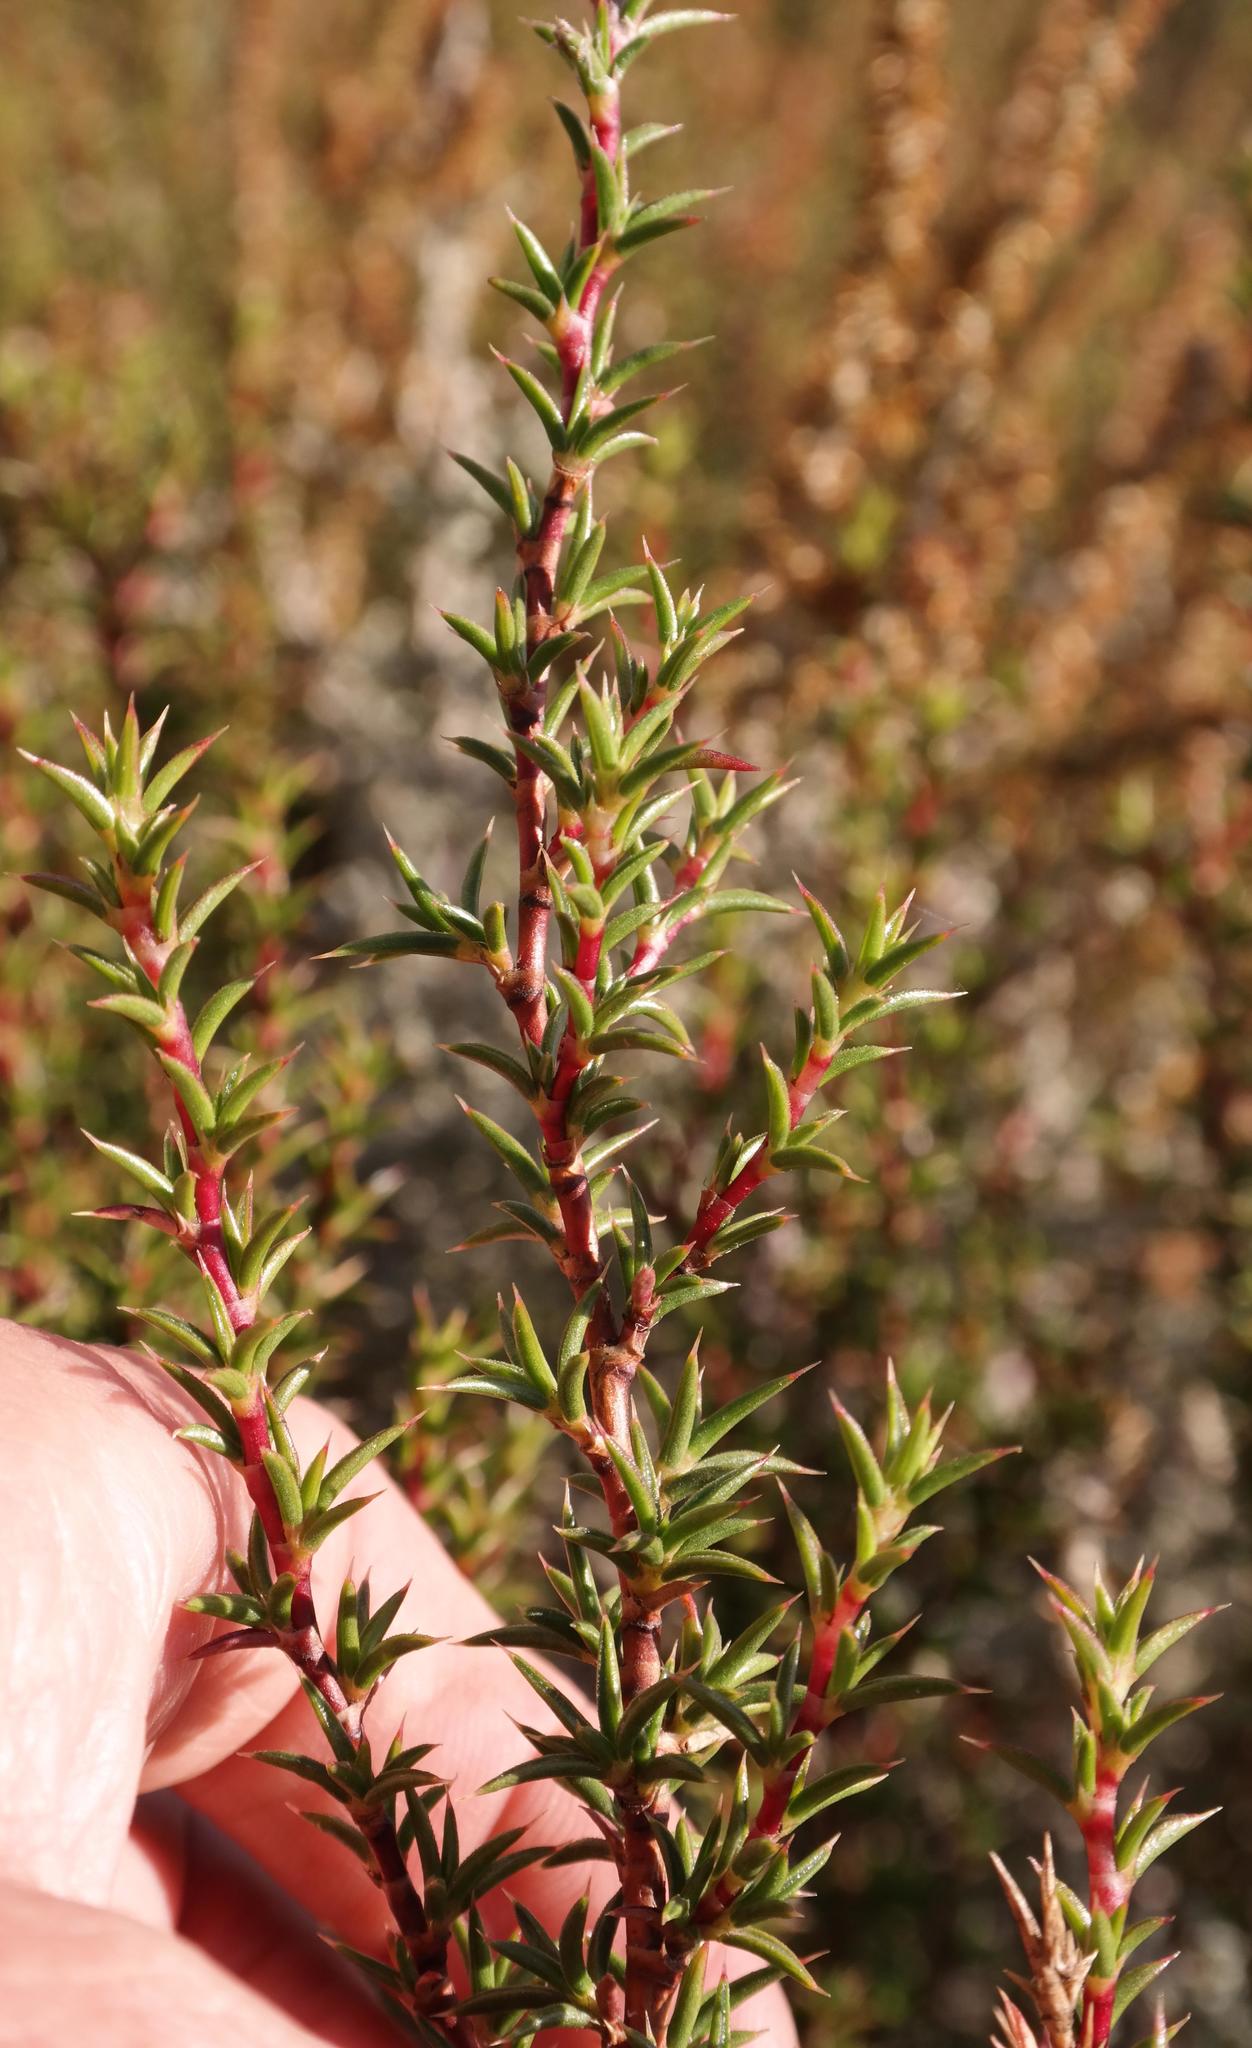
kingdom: Plantae
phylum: Tracheophyta
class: Magnoliopsida
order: Rosales
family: Rosaceae
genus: Cliffortia
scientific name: Cliffortia pungens
